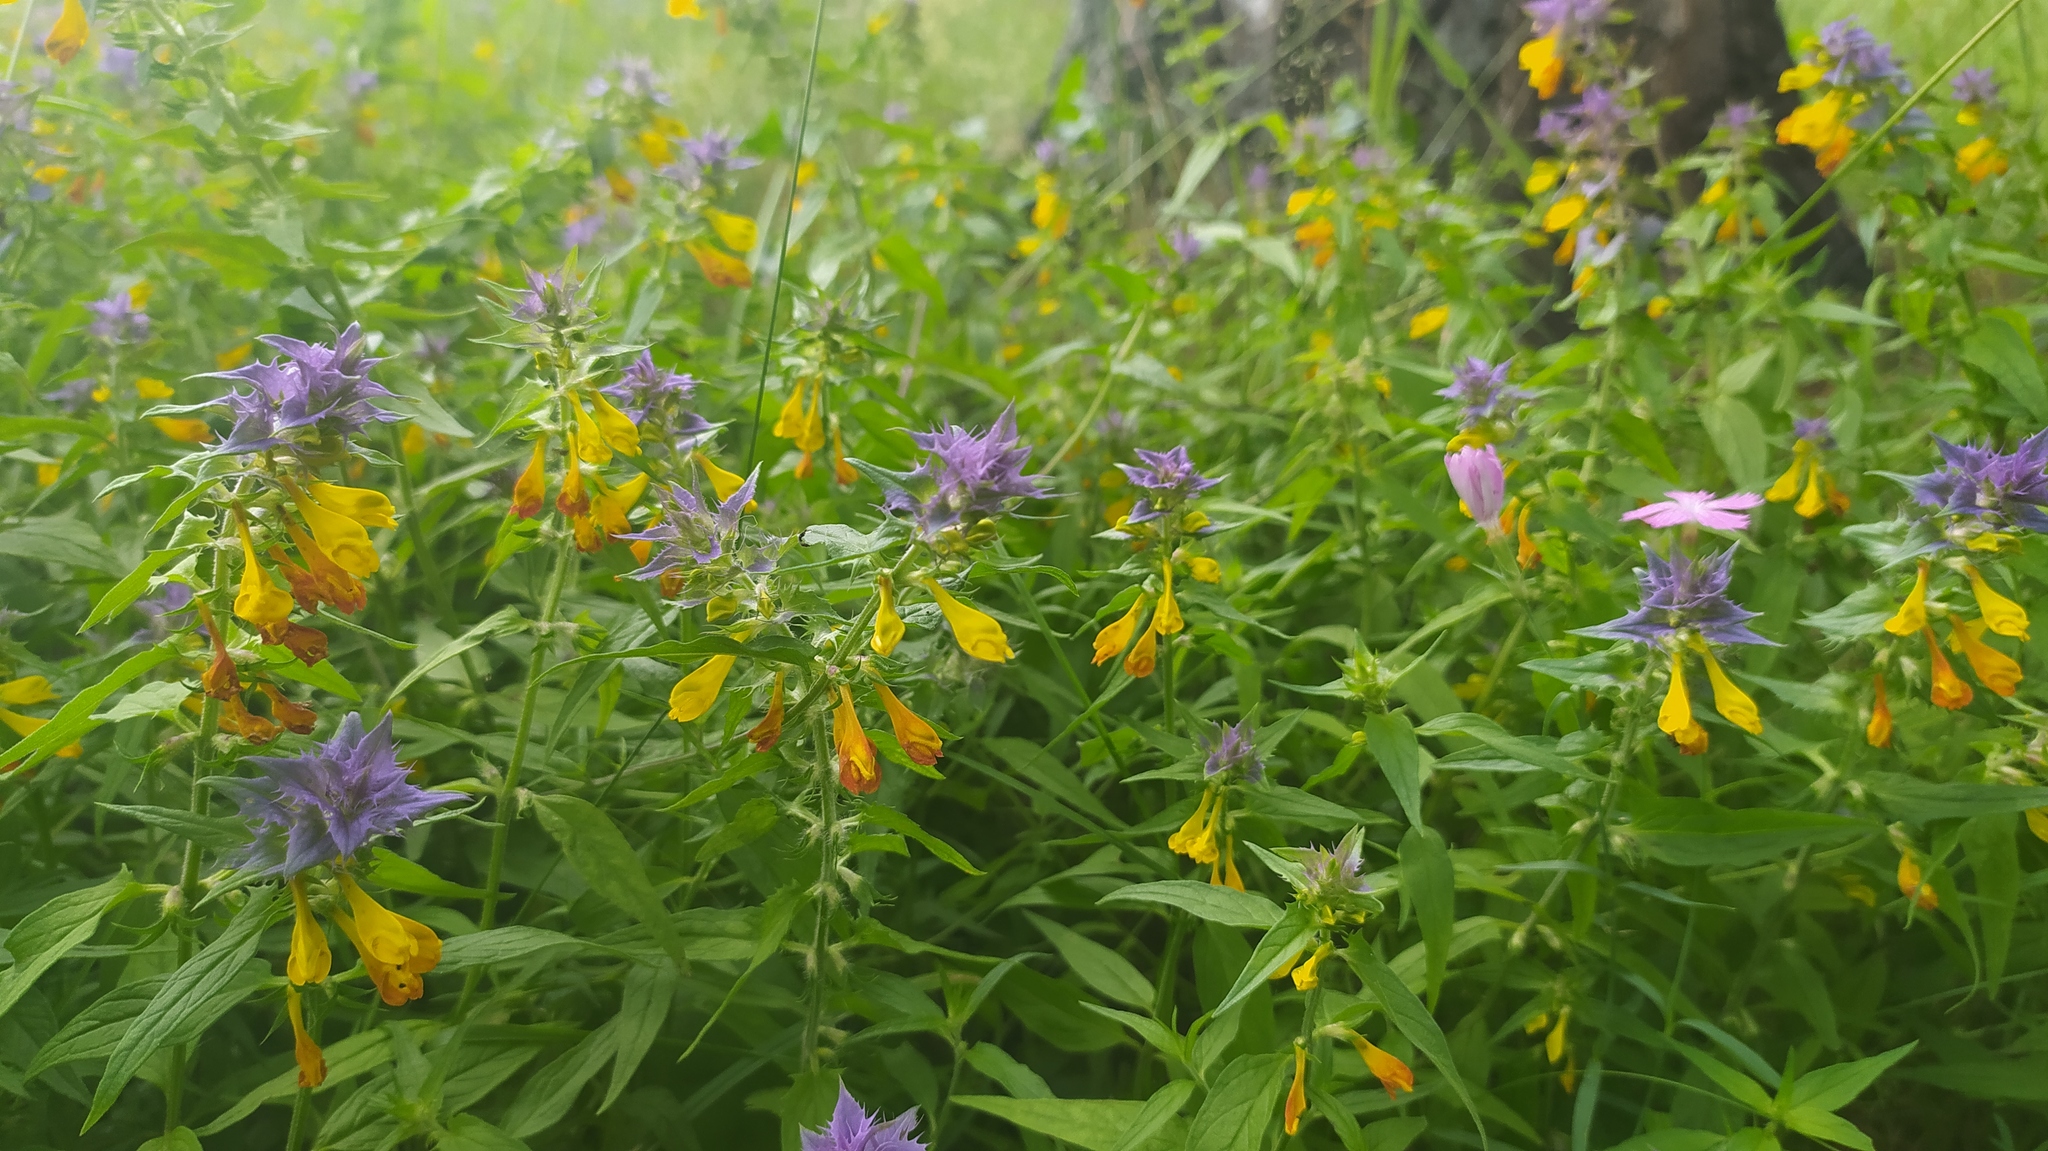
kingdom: Plantae
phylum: Tracheophyta
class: Magnoliopsida
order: Lamiales
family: Orobanchaceae
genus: Melampyrum
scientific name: Melampyrum nemorosum
